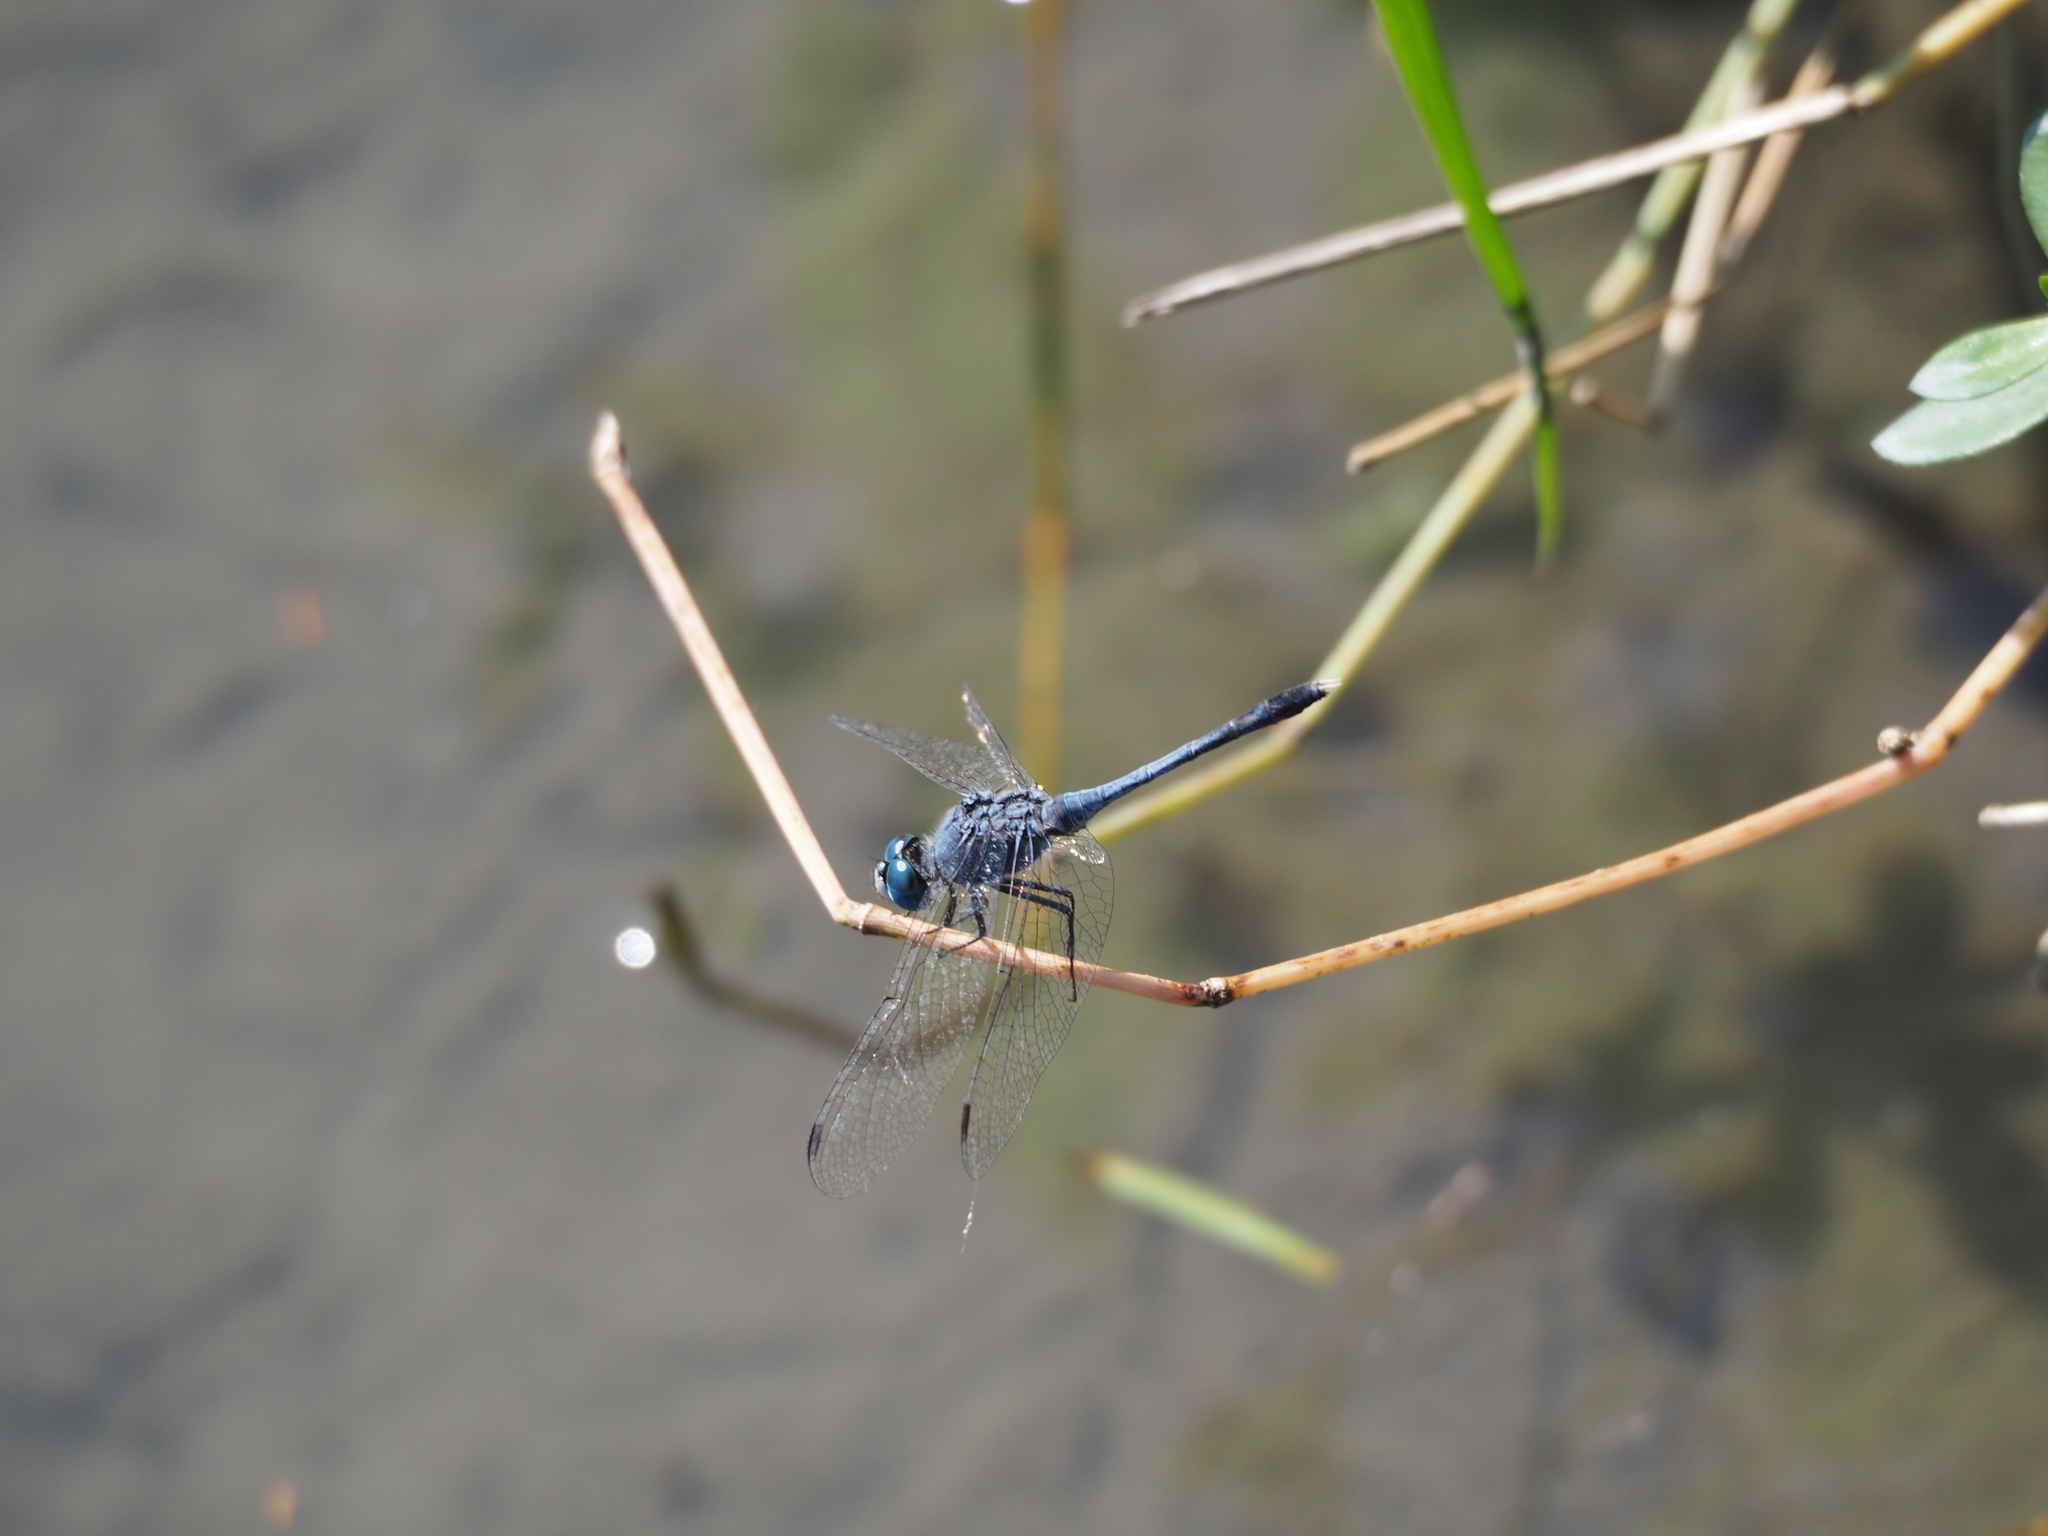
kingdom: Animalia
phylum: Arthropoda
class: Insecta
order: Odonata
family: Libellulidae
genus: Diplacodes
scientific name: Diplacodes trivialis
